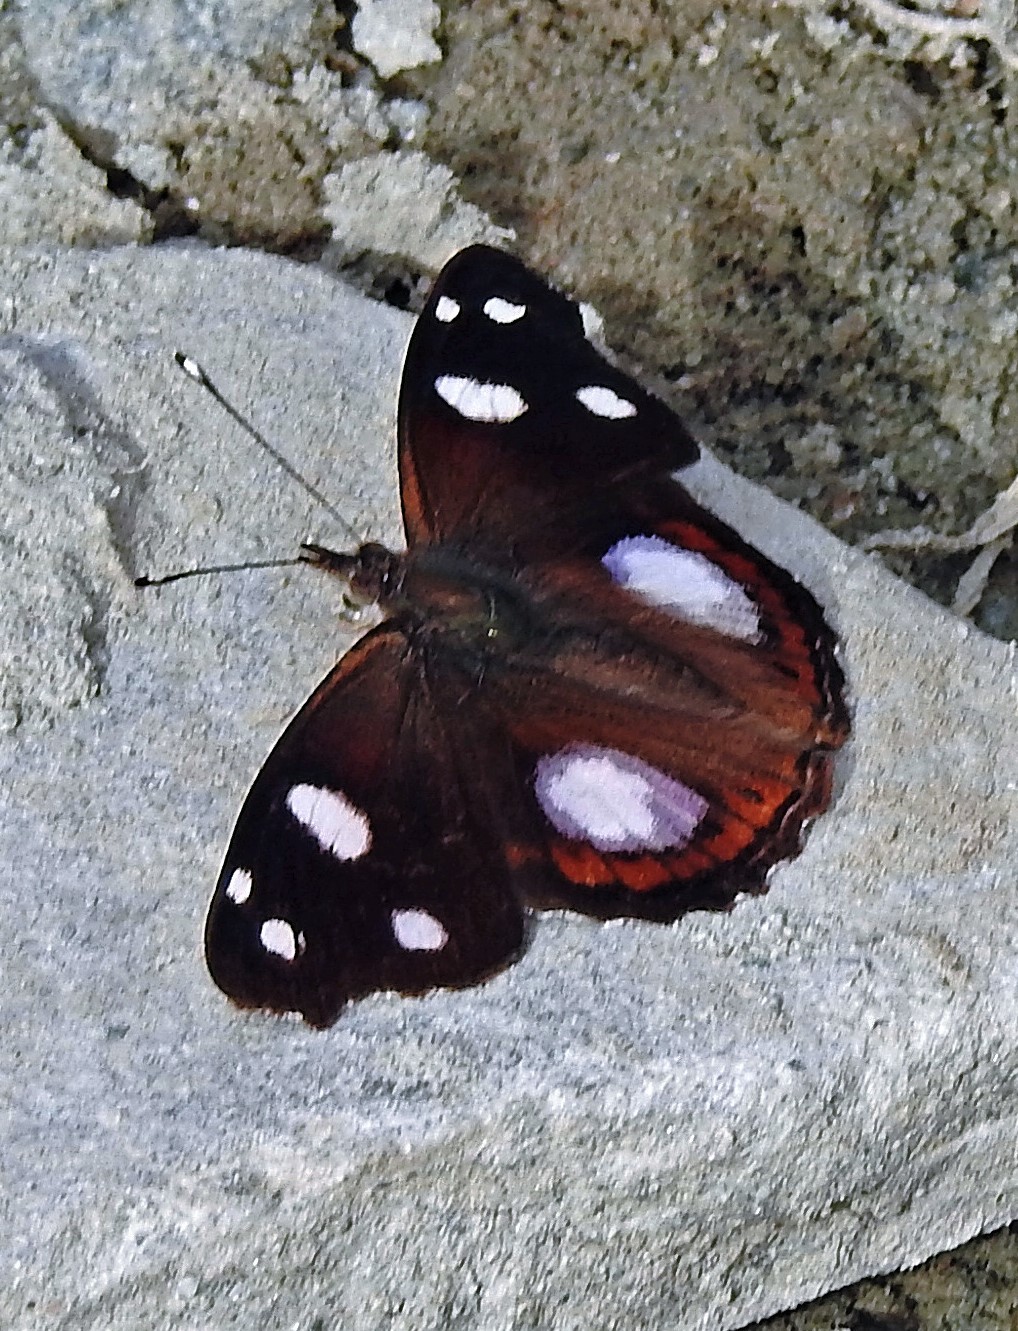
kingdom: Animalia
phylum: Arthropoda
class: Insecta
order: Lepidoptera
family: Nymphalidae
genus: Cybdelis
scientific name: Cybdelis
